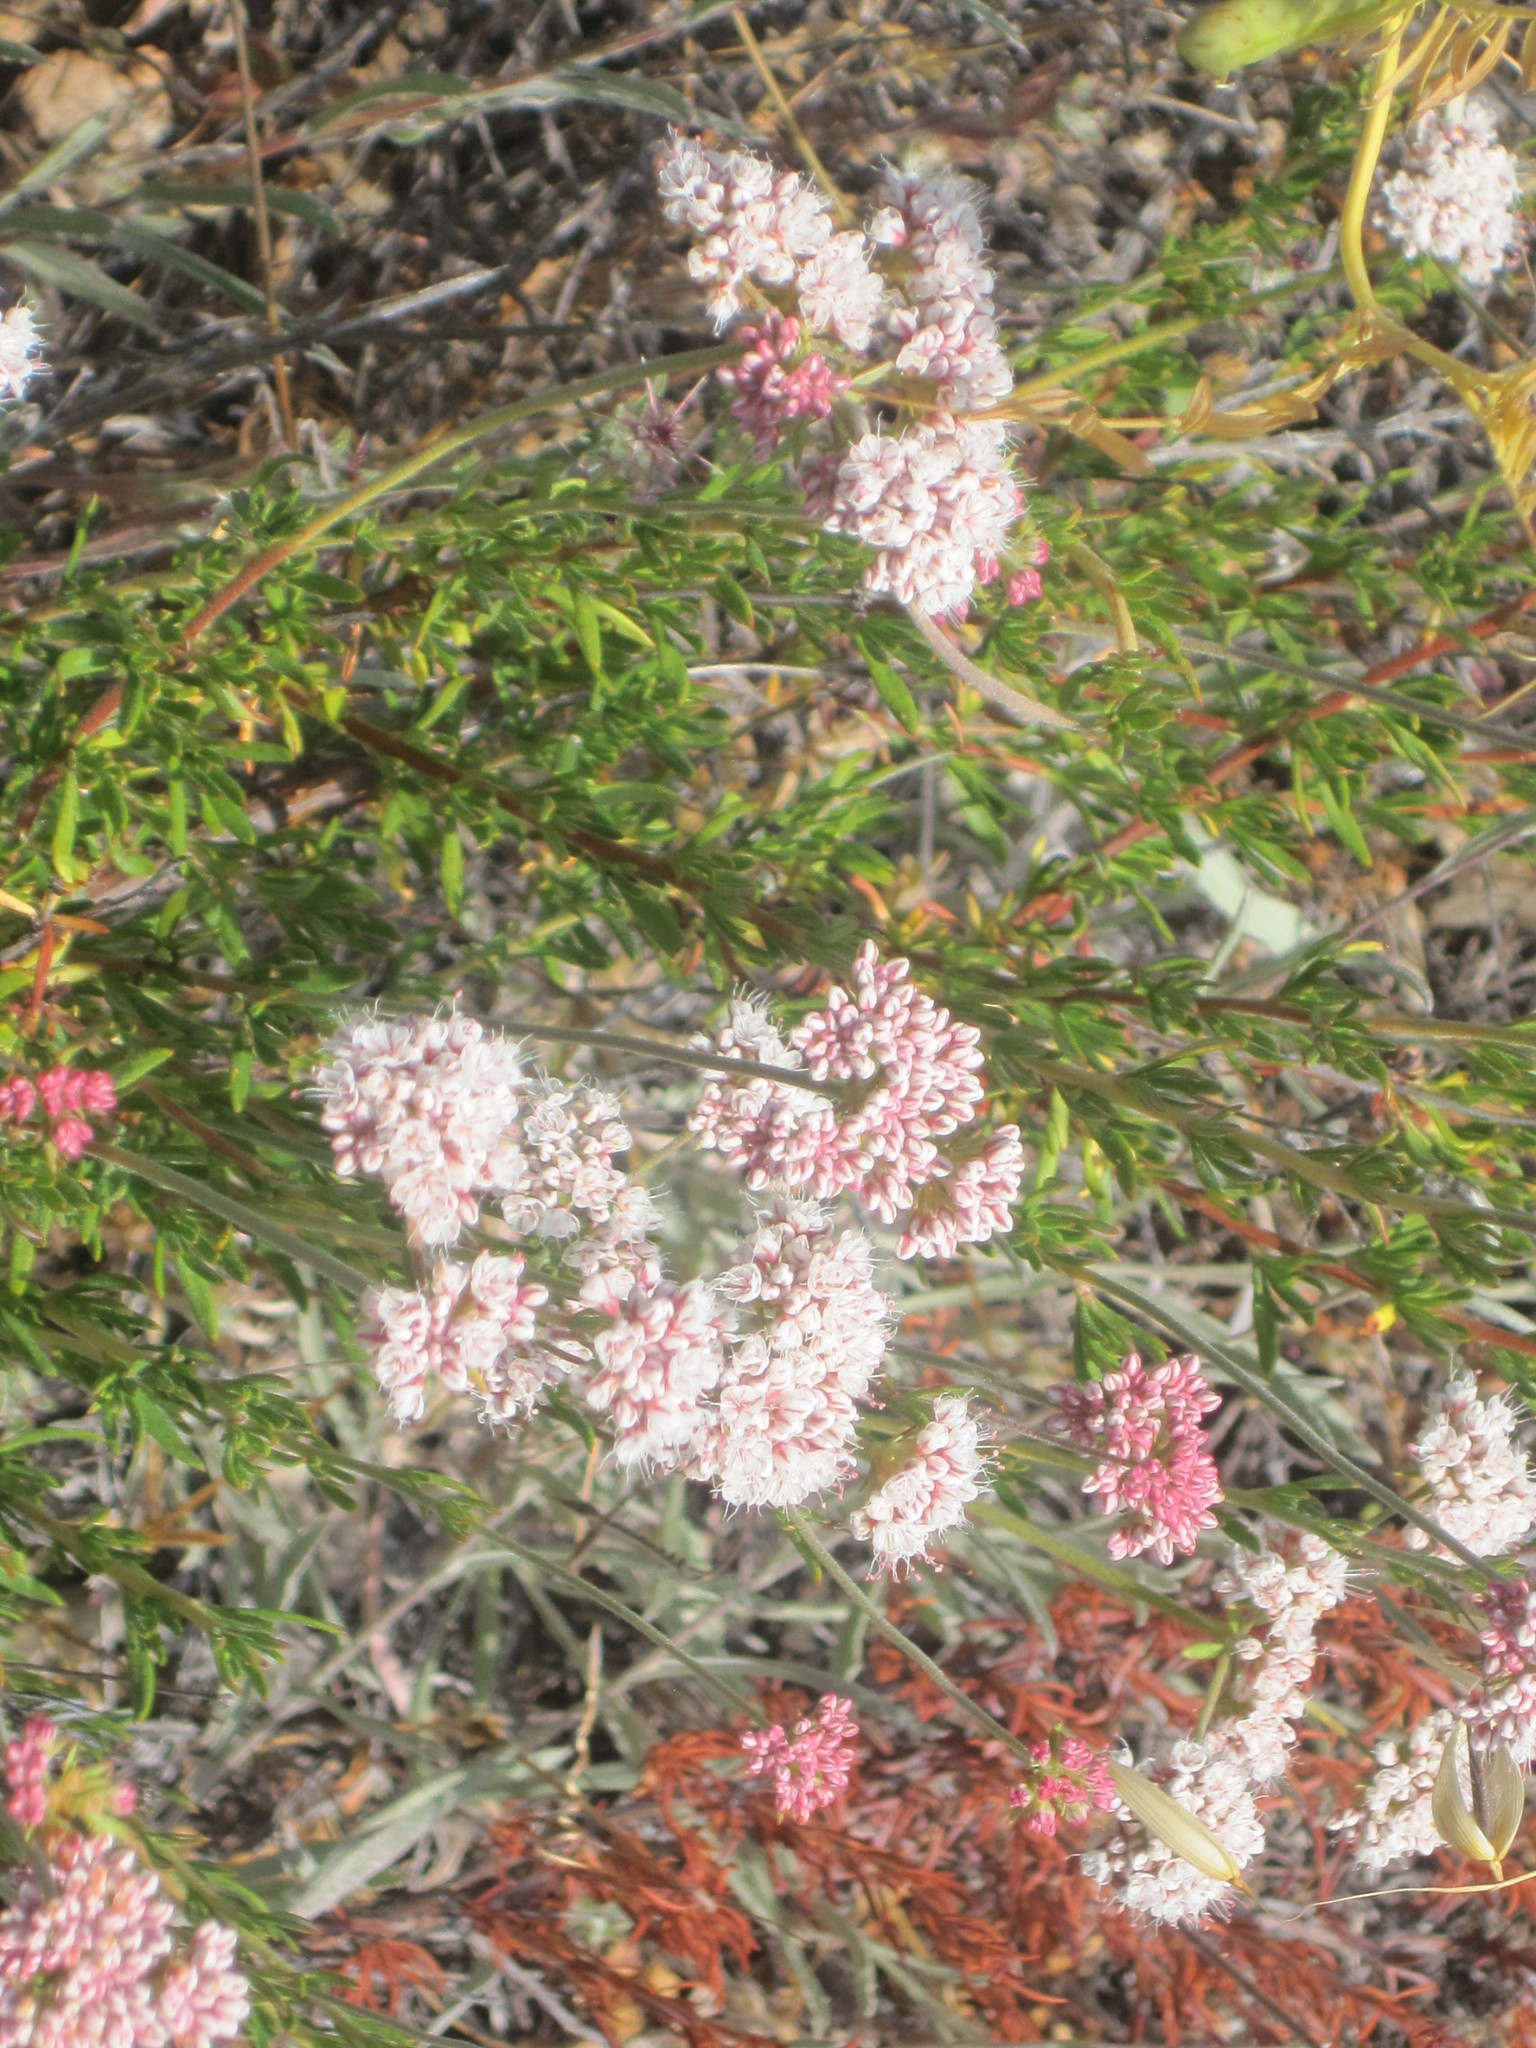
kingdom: Plantae
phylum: Tracheophyta
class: Magnoliopsida
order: Caryophyllales
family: Polygonaceae
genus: Eriogonum
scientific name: Eriogonum fasciculatum
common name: California wild buckwheat
